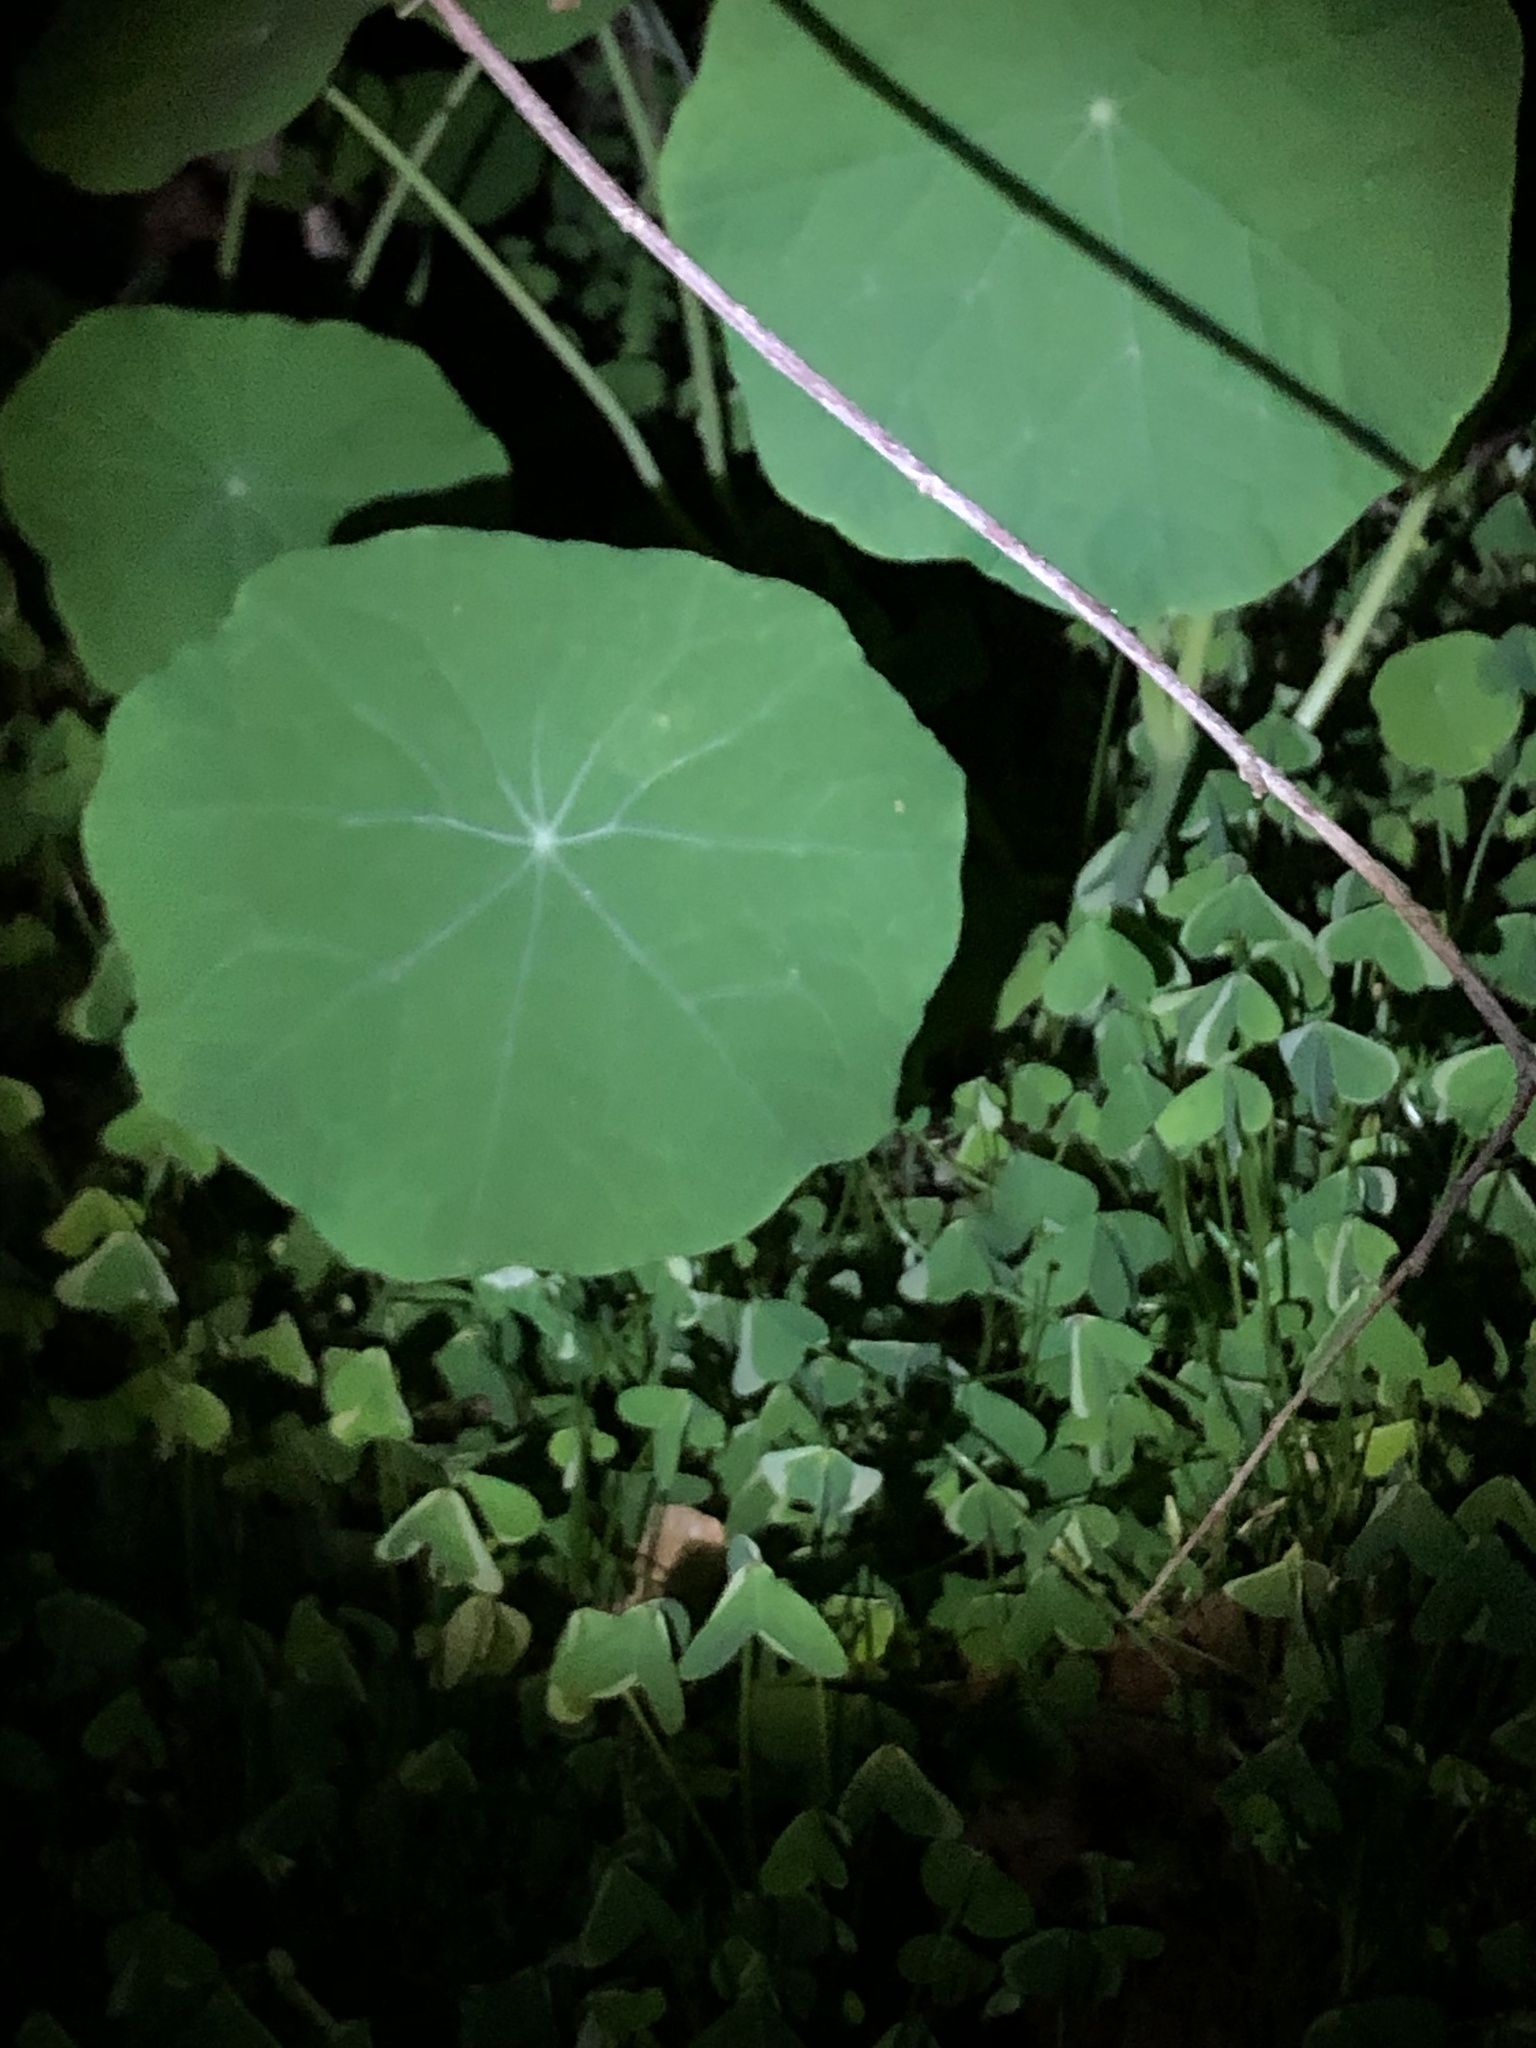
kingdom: Plantae
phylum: Tracheophyta
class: Magnoliopsida
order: Brassicales
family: Tropaeolaceae
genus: Tropaeolum
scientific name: Tropaeolum majus
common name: Nasturtium
